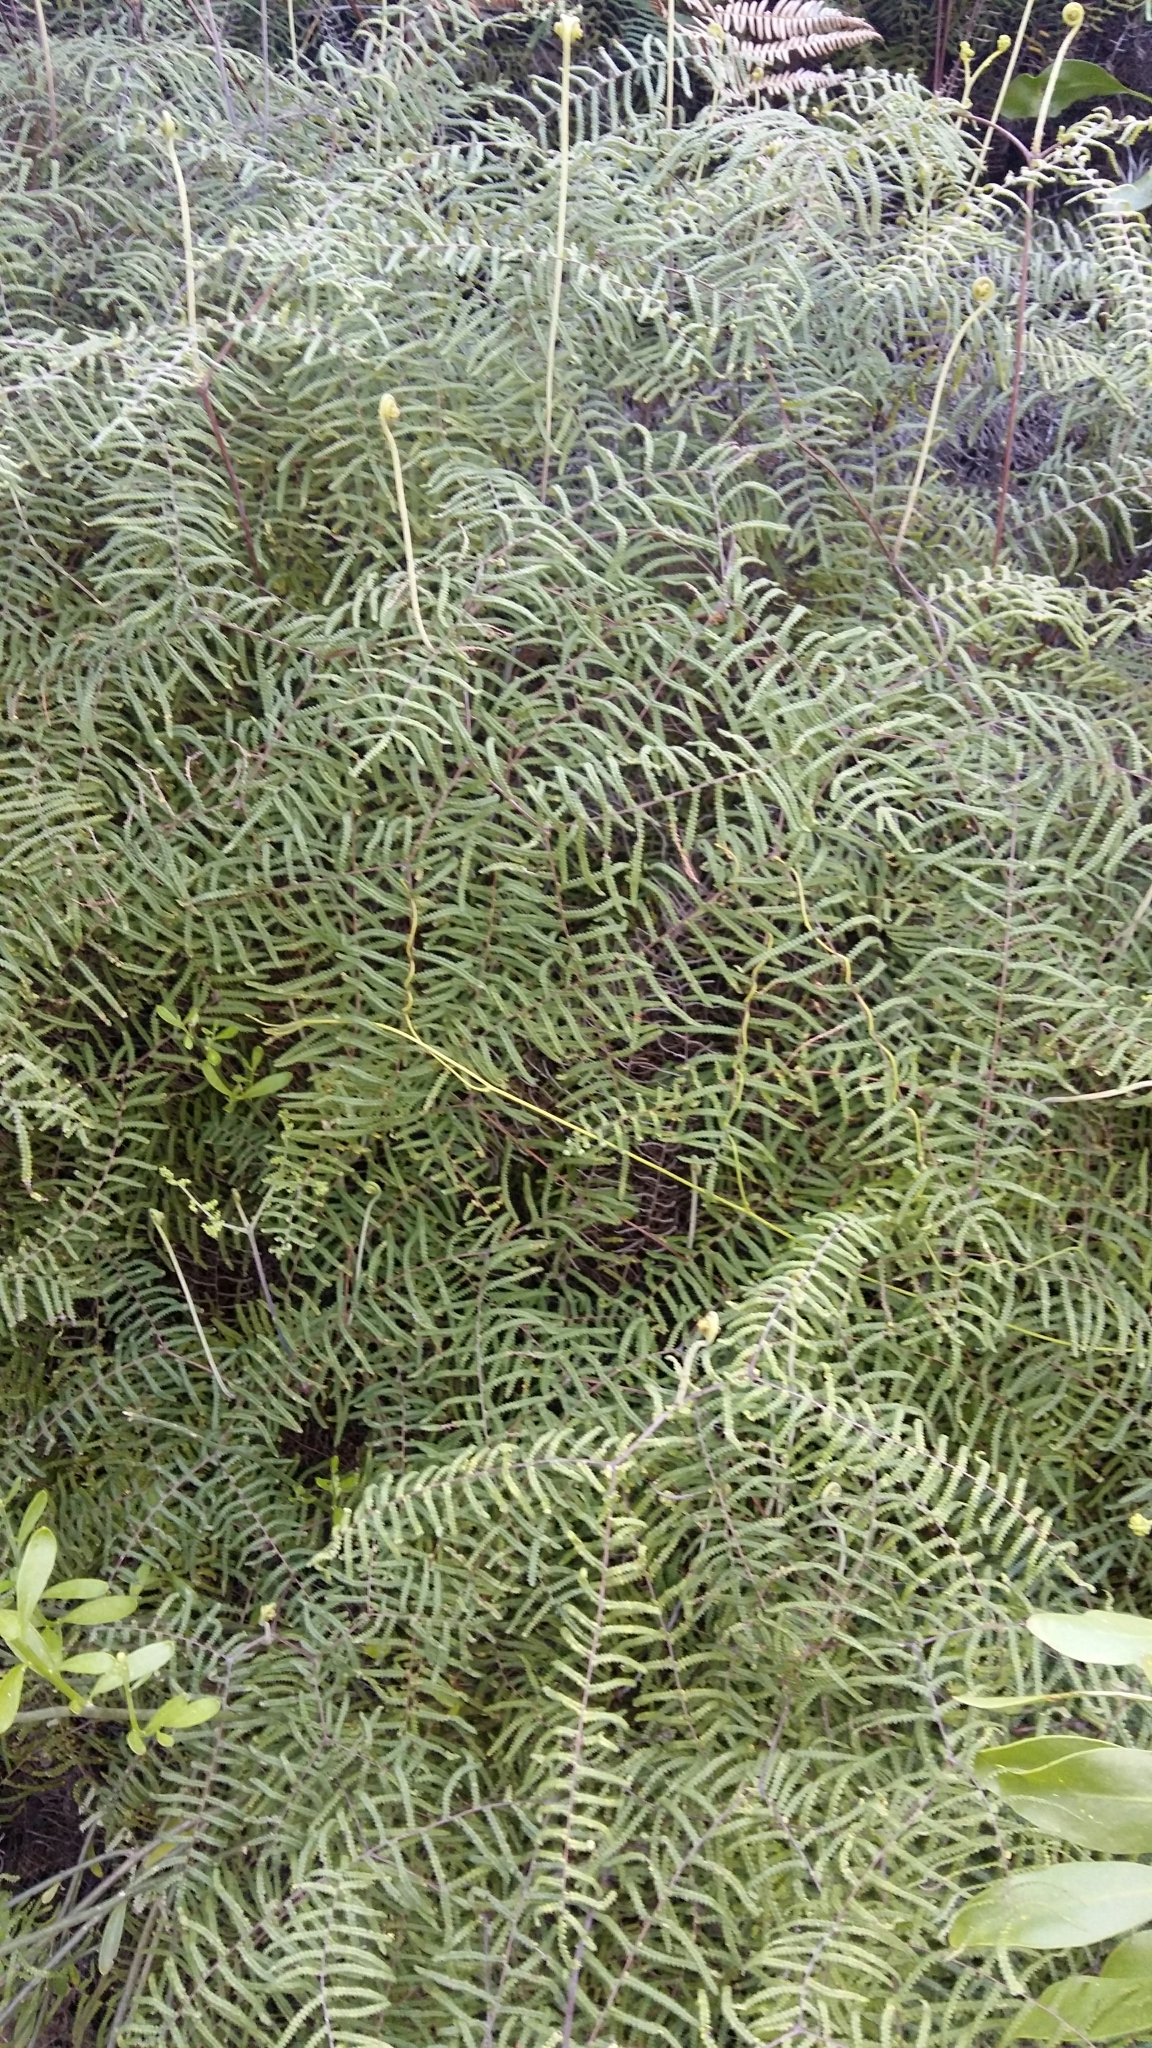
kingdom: Plantae
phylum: Tracheophyta
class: Polypodiopsida
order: Gleicheniales
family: Gleicheniaceae
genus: Gleichenia
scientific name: Gleichenia polypodioides
